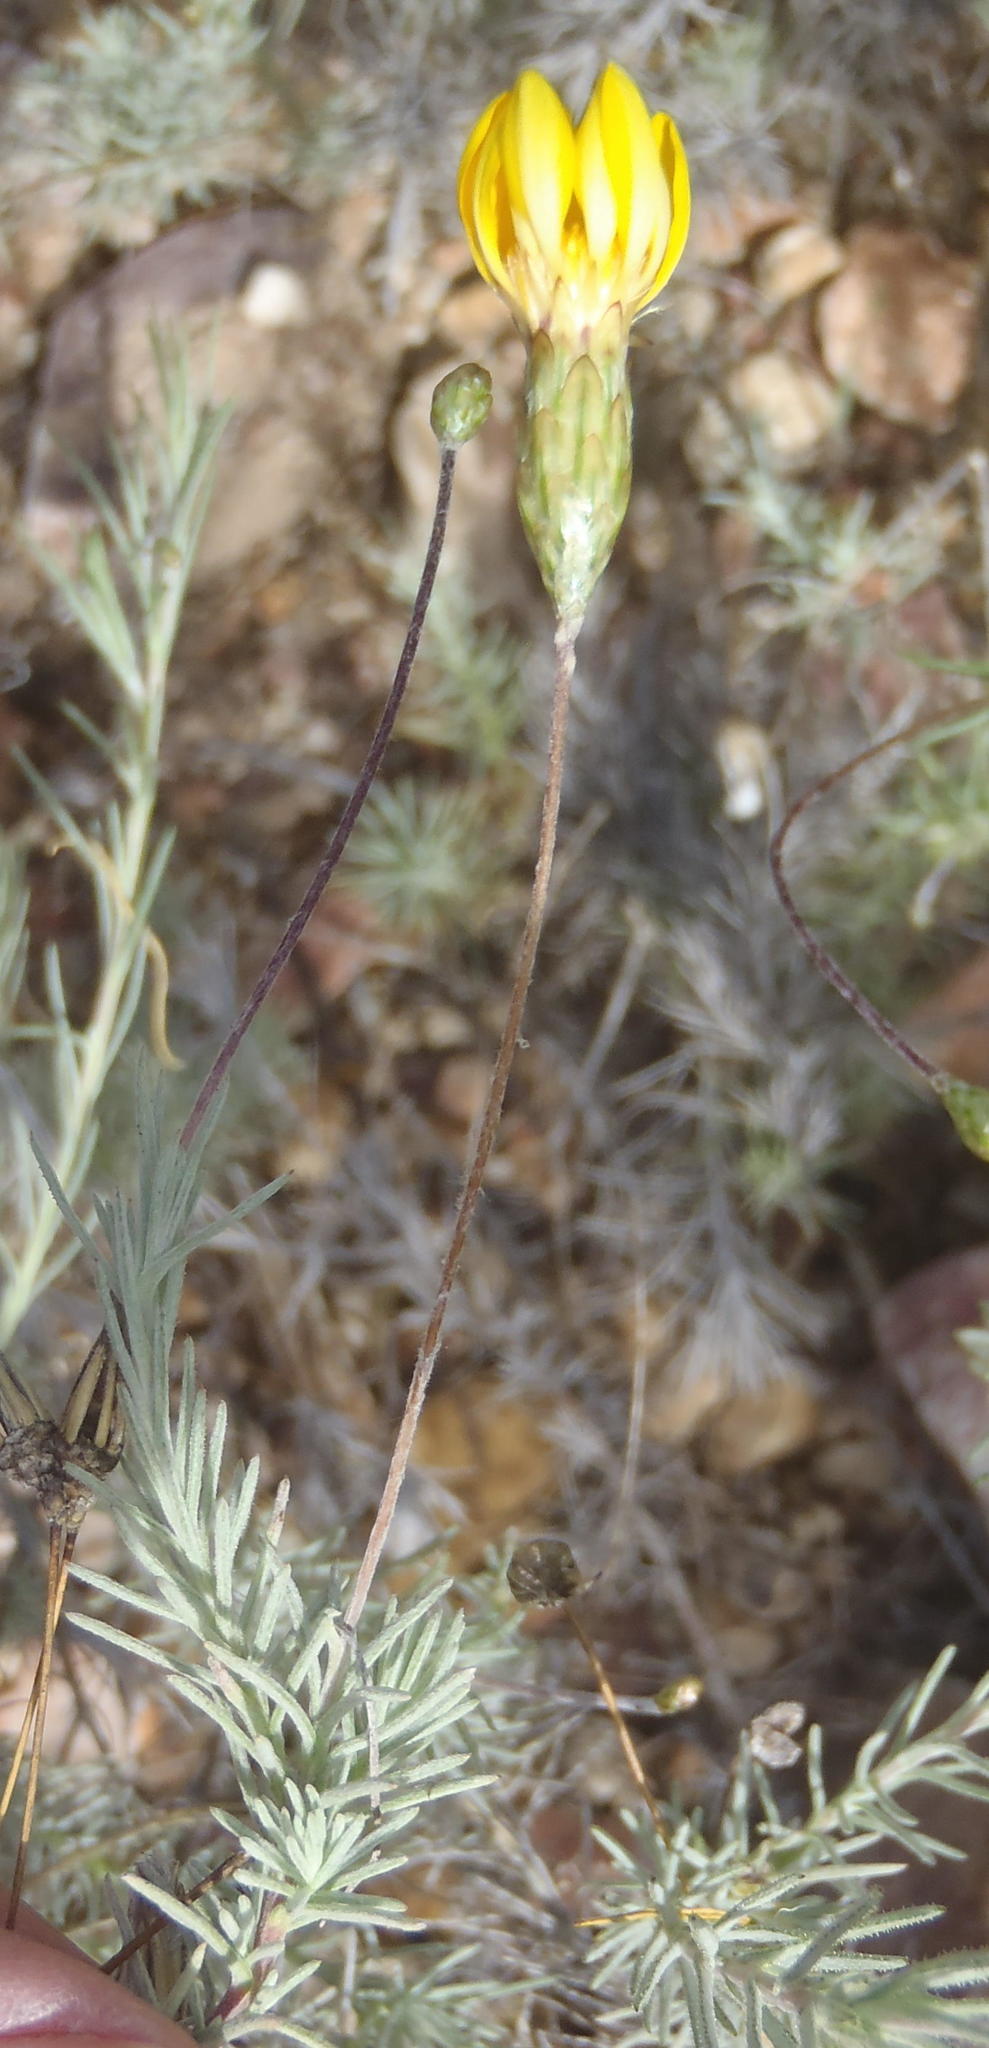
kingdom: Plantae
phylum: Tracheophyta
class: Magnoliopsida
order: Asterales
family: Asteraceae
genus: Leysera
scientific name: Leysera gnaphalodes
